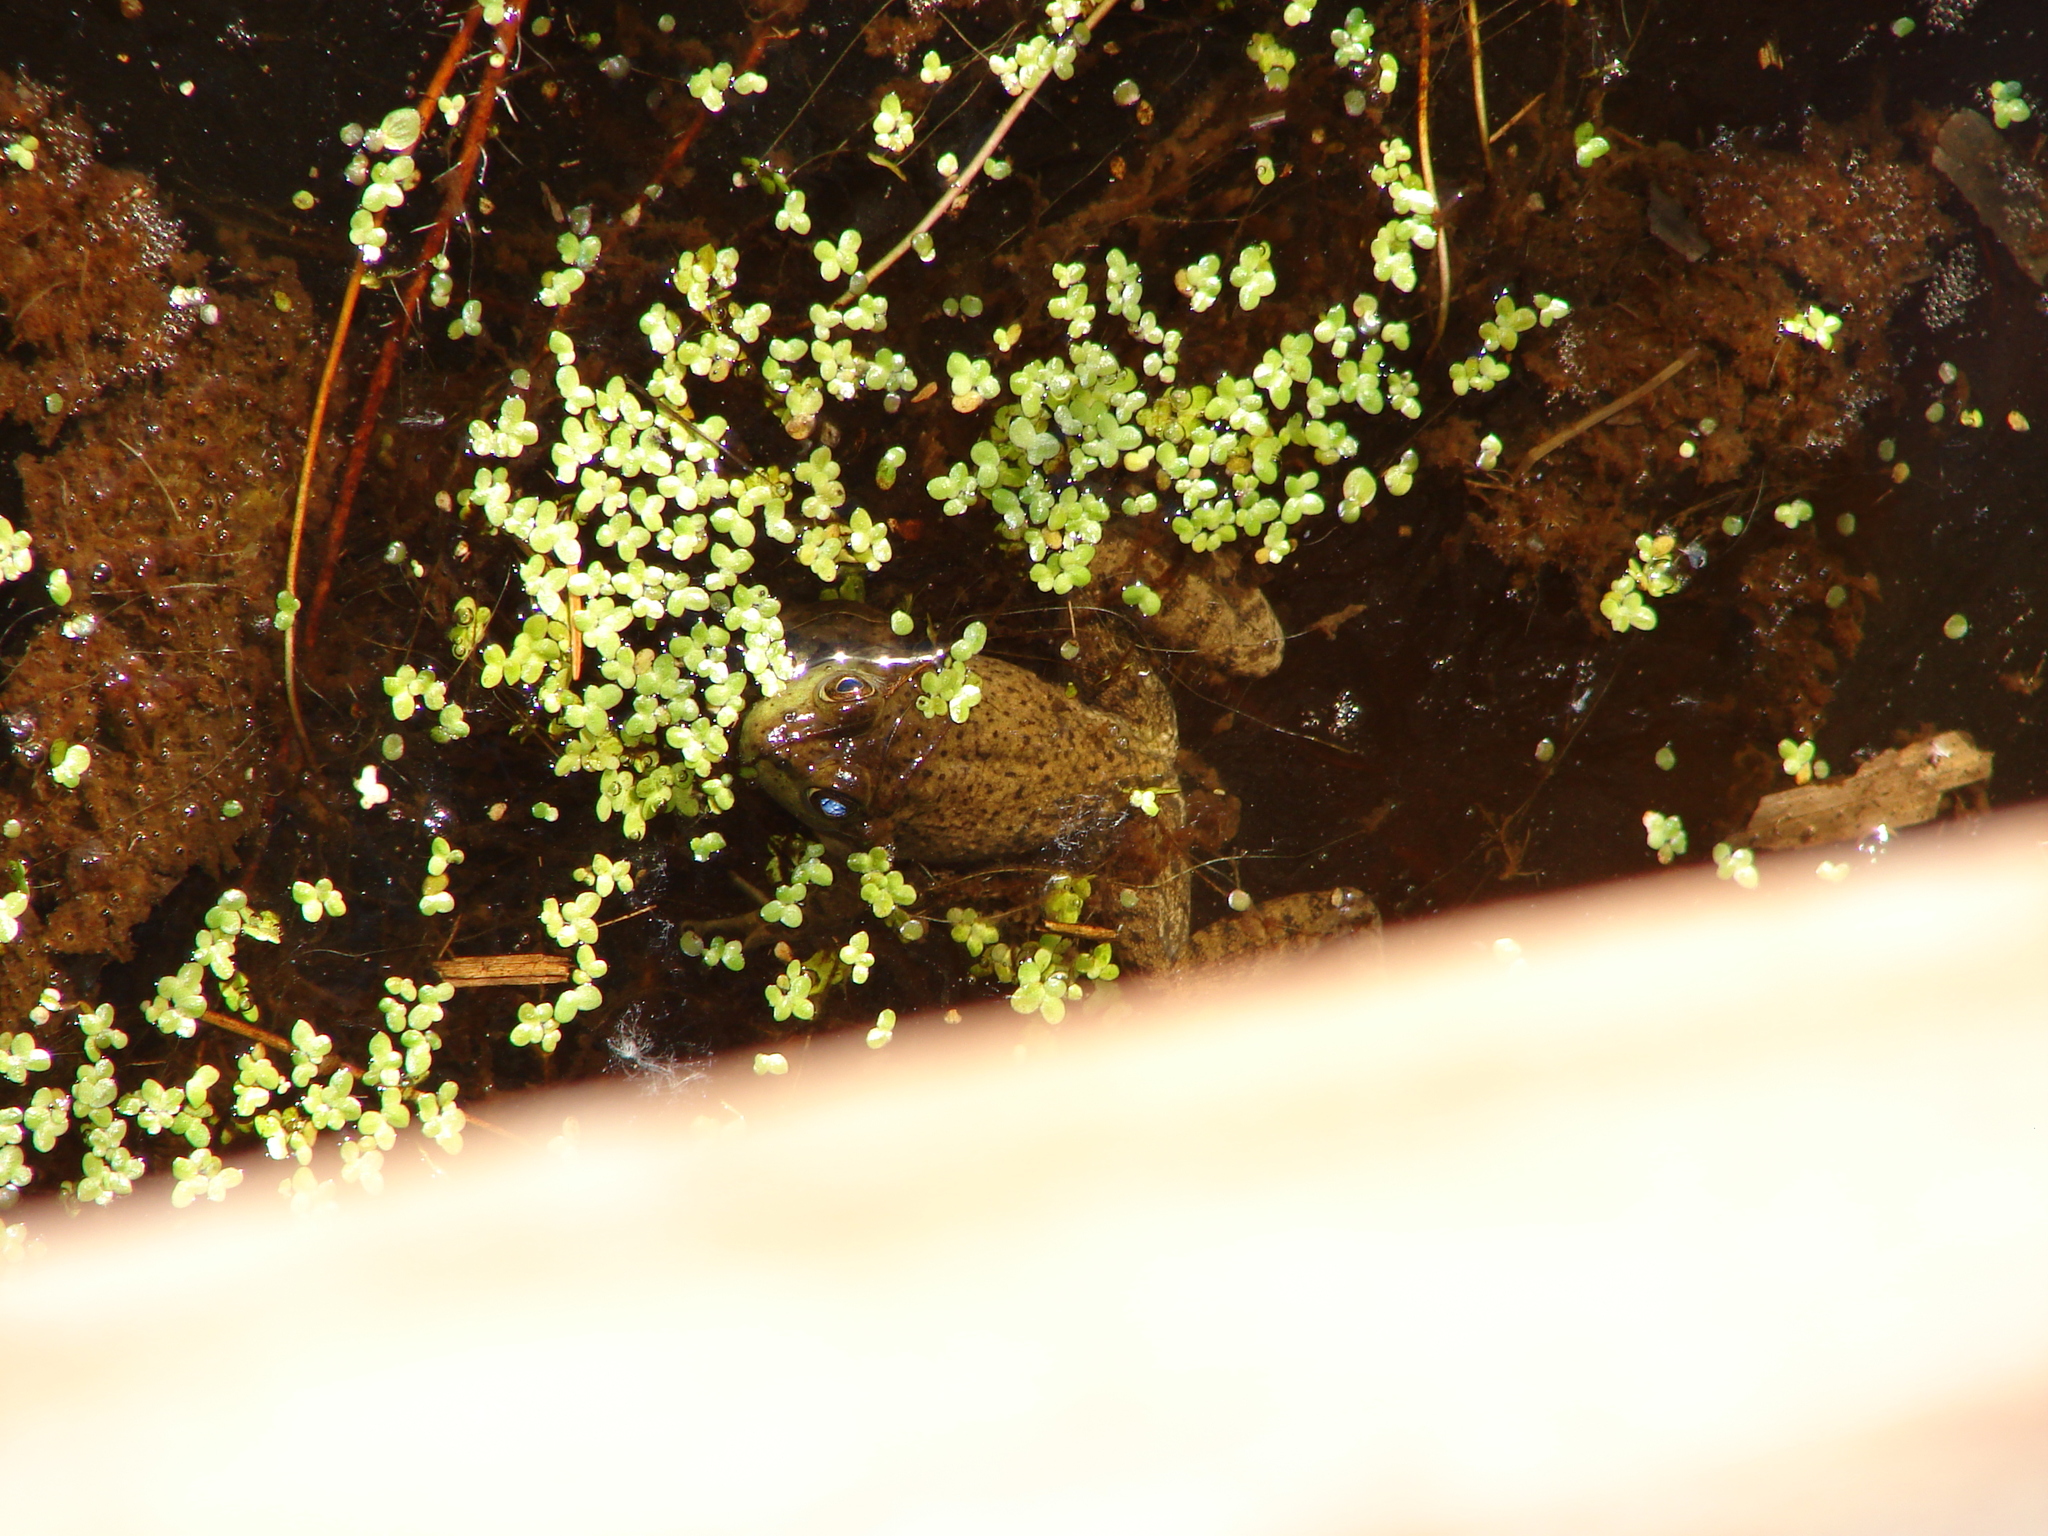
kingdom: Animalia
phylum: Chordata
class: Amphibia
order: Anura
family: Ranidae
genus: Lithobates
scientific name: Lithobates catesbeianus
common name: American bullfrog
